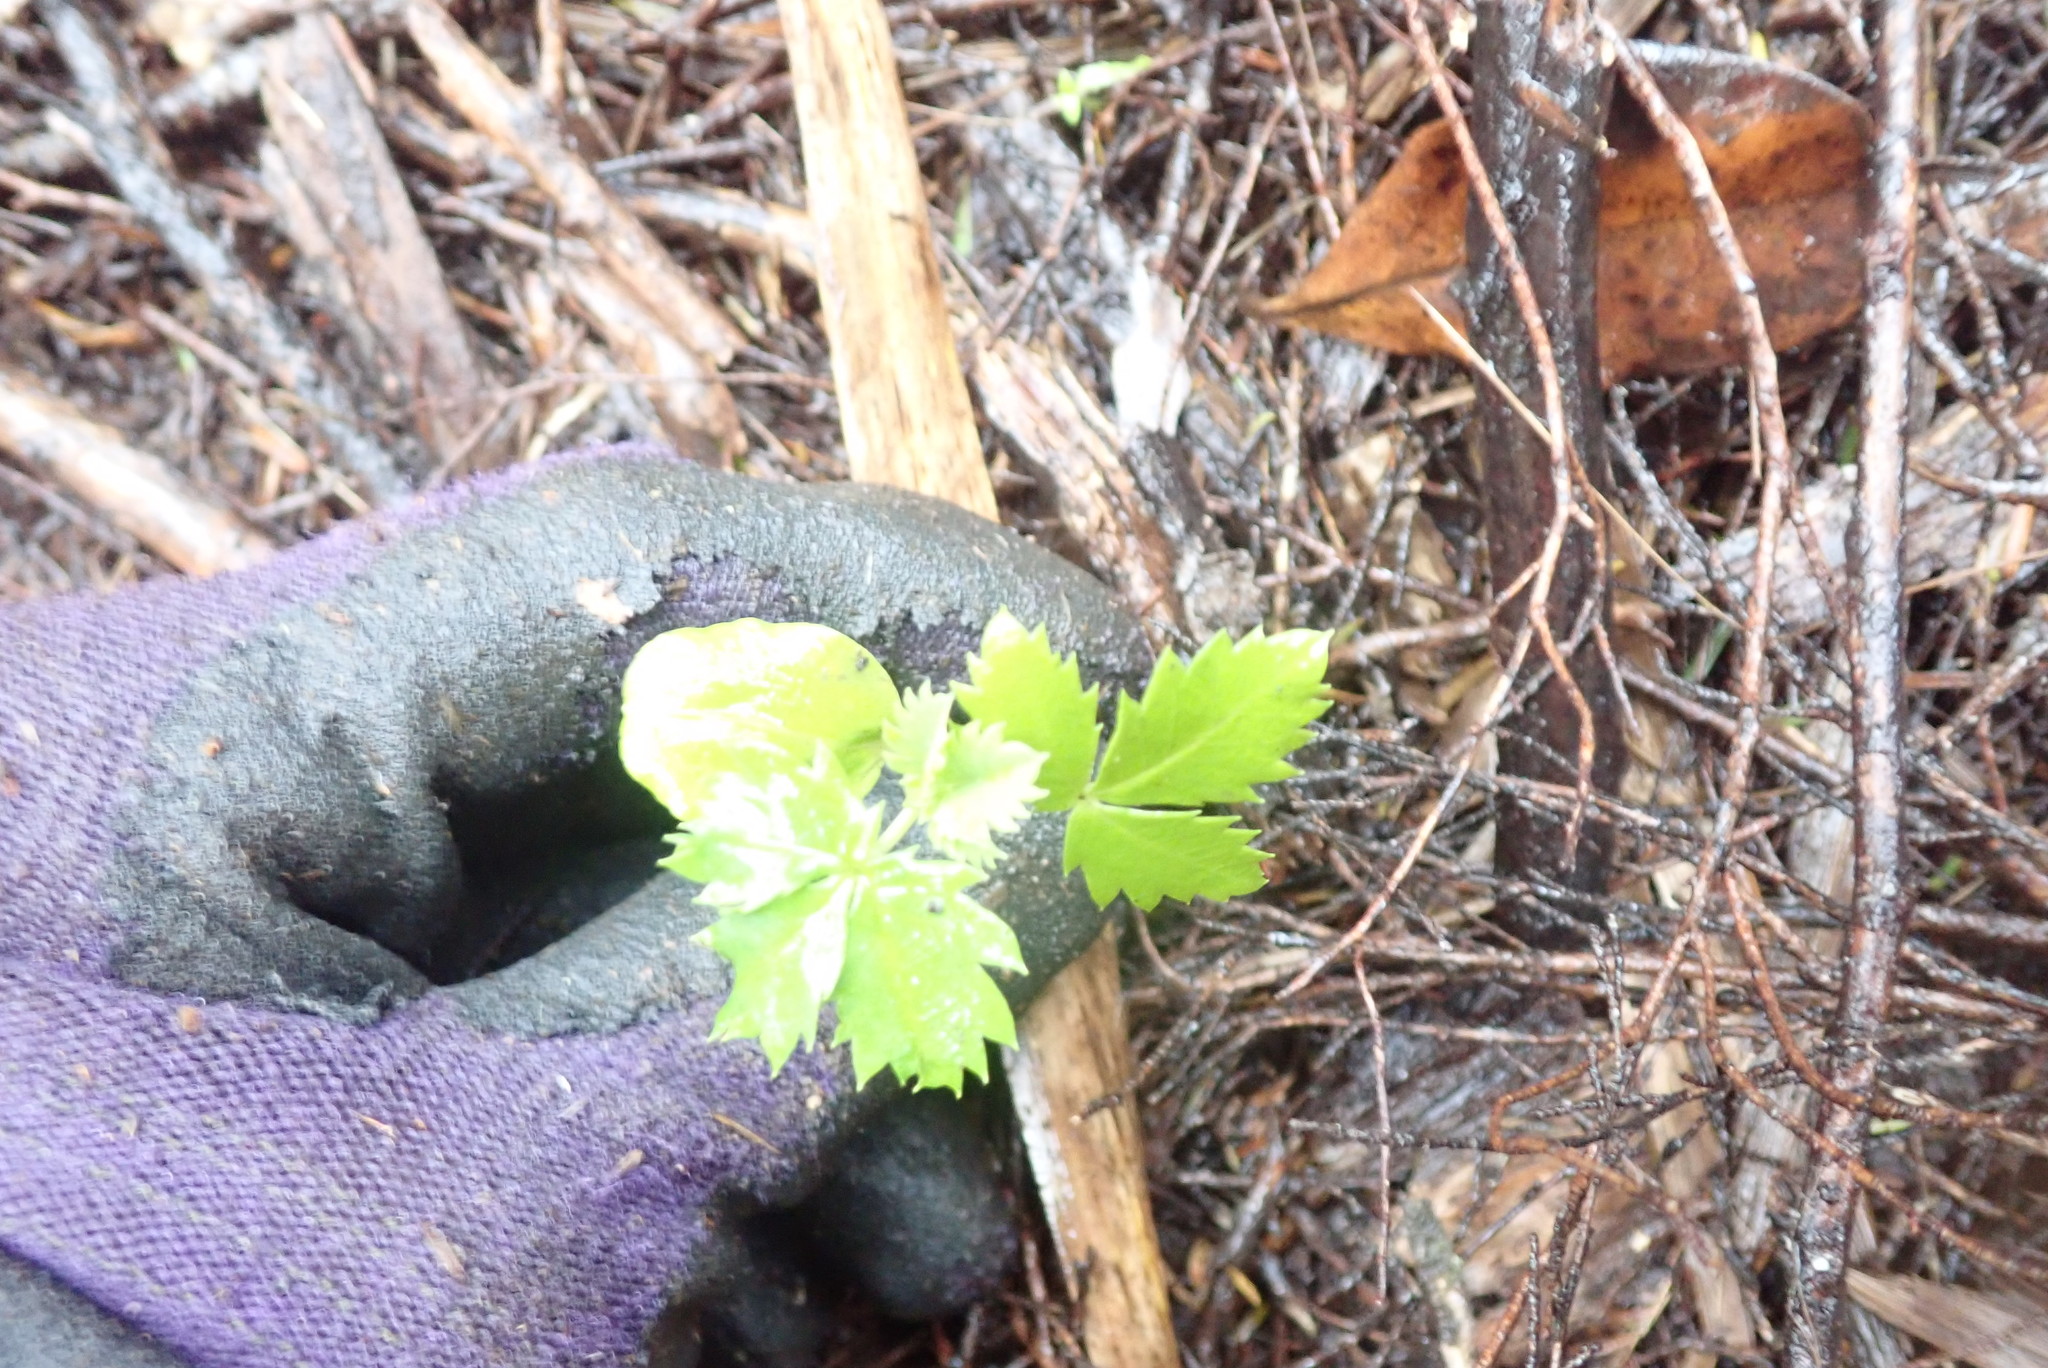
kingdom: Plantae
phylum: Tracheophyta
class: Magnoliopsida
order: Geraniales
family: Melianthaceae
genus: Melianthus
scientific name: Melianthus major
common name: Honey-flower
